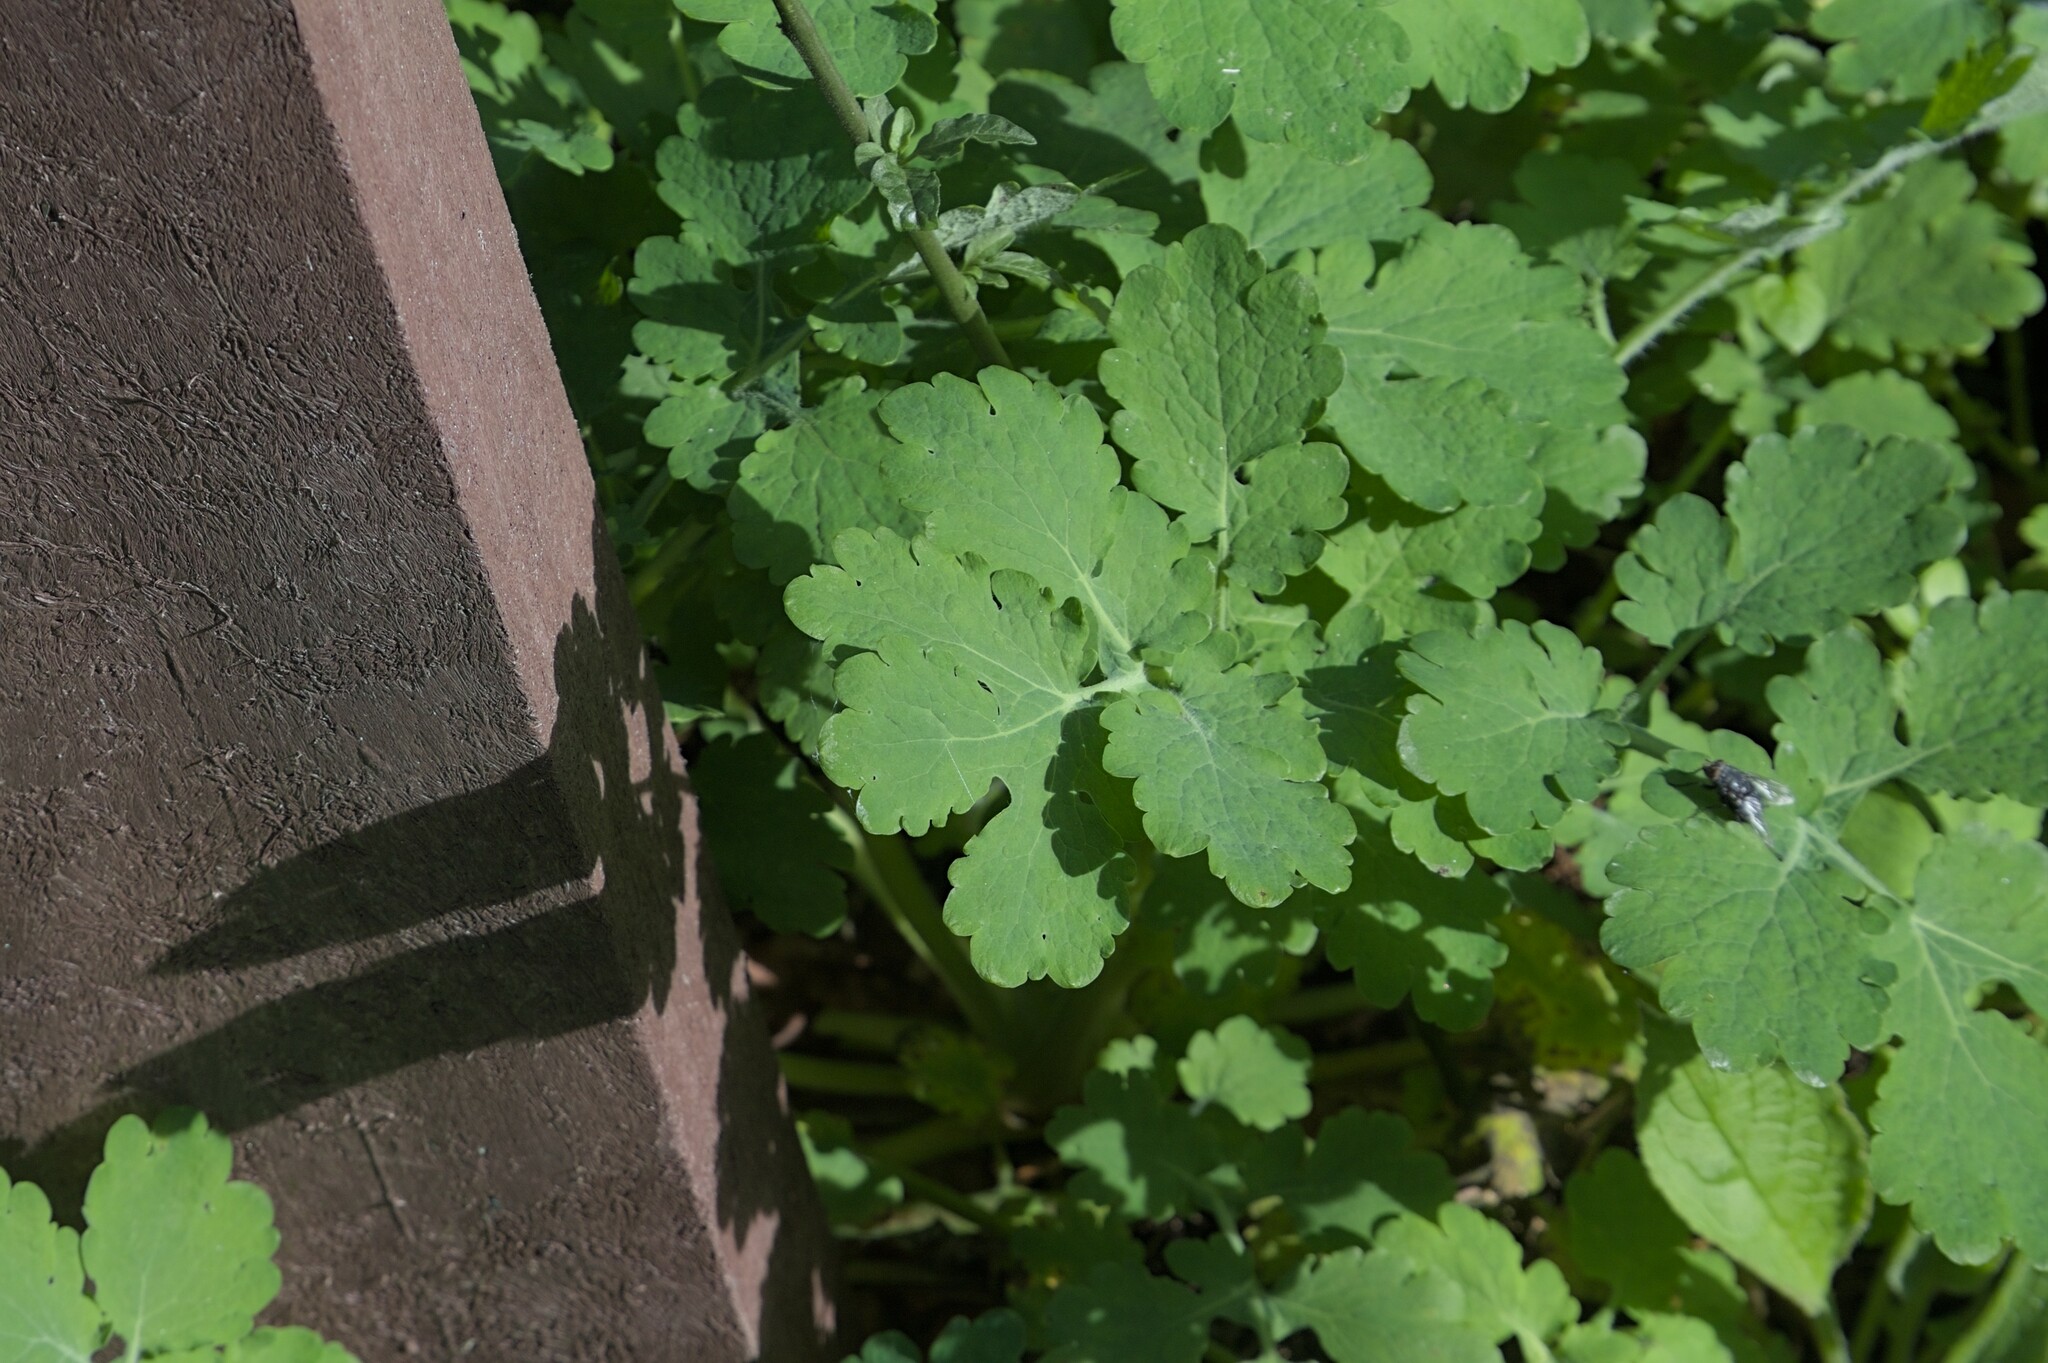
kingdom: Plantae
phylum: Tracheophyta
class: Magnoliopsida
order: Ranunculales
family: Papaveraceae
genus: Chelidonium
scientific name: Chelidonium majus
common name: Greater celandine
